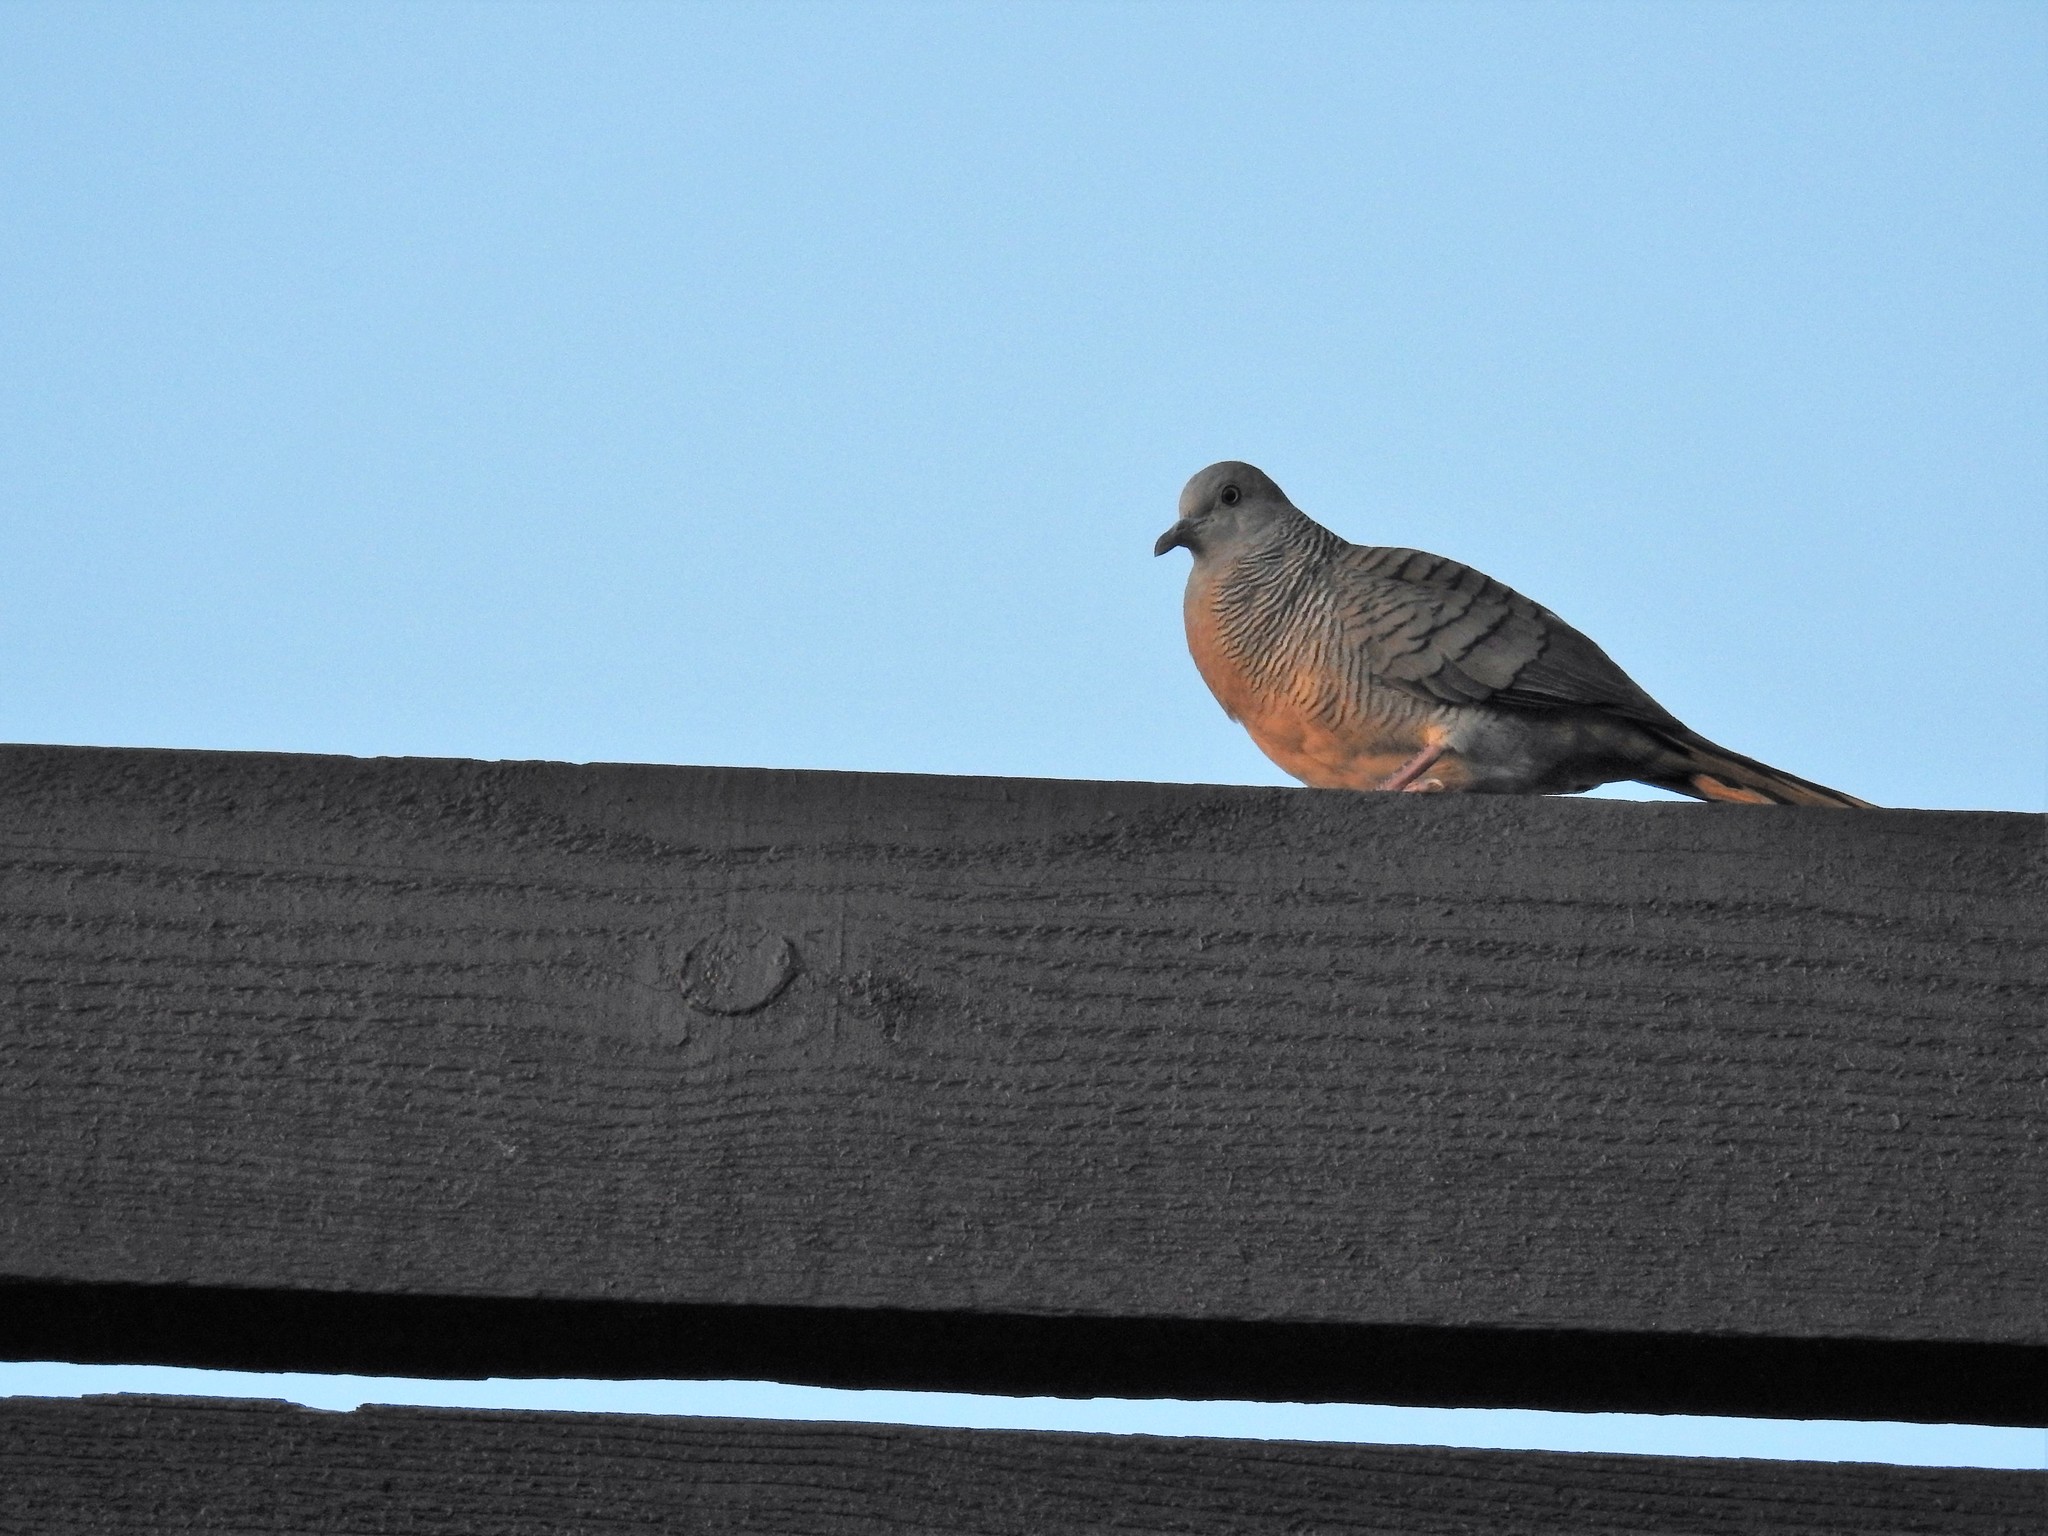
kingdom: Animalia
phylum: Chordata
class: Aves
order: Columbiformes
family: Columbidae
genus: Geopelia
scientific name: Geopelia striata
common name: Zebra dove
